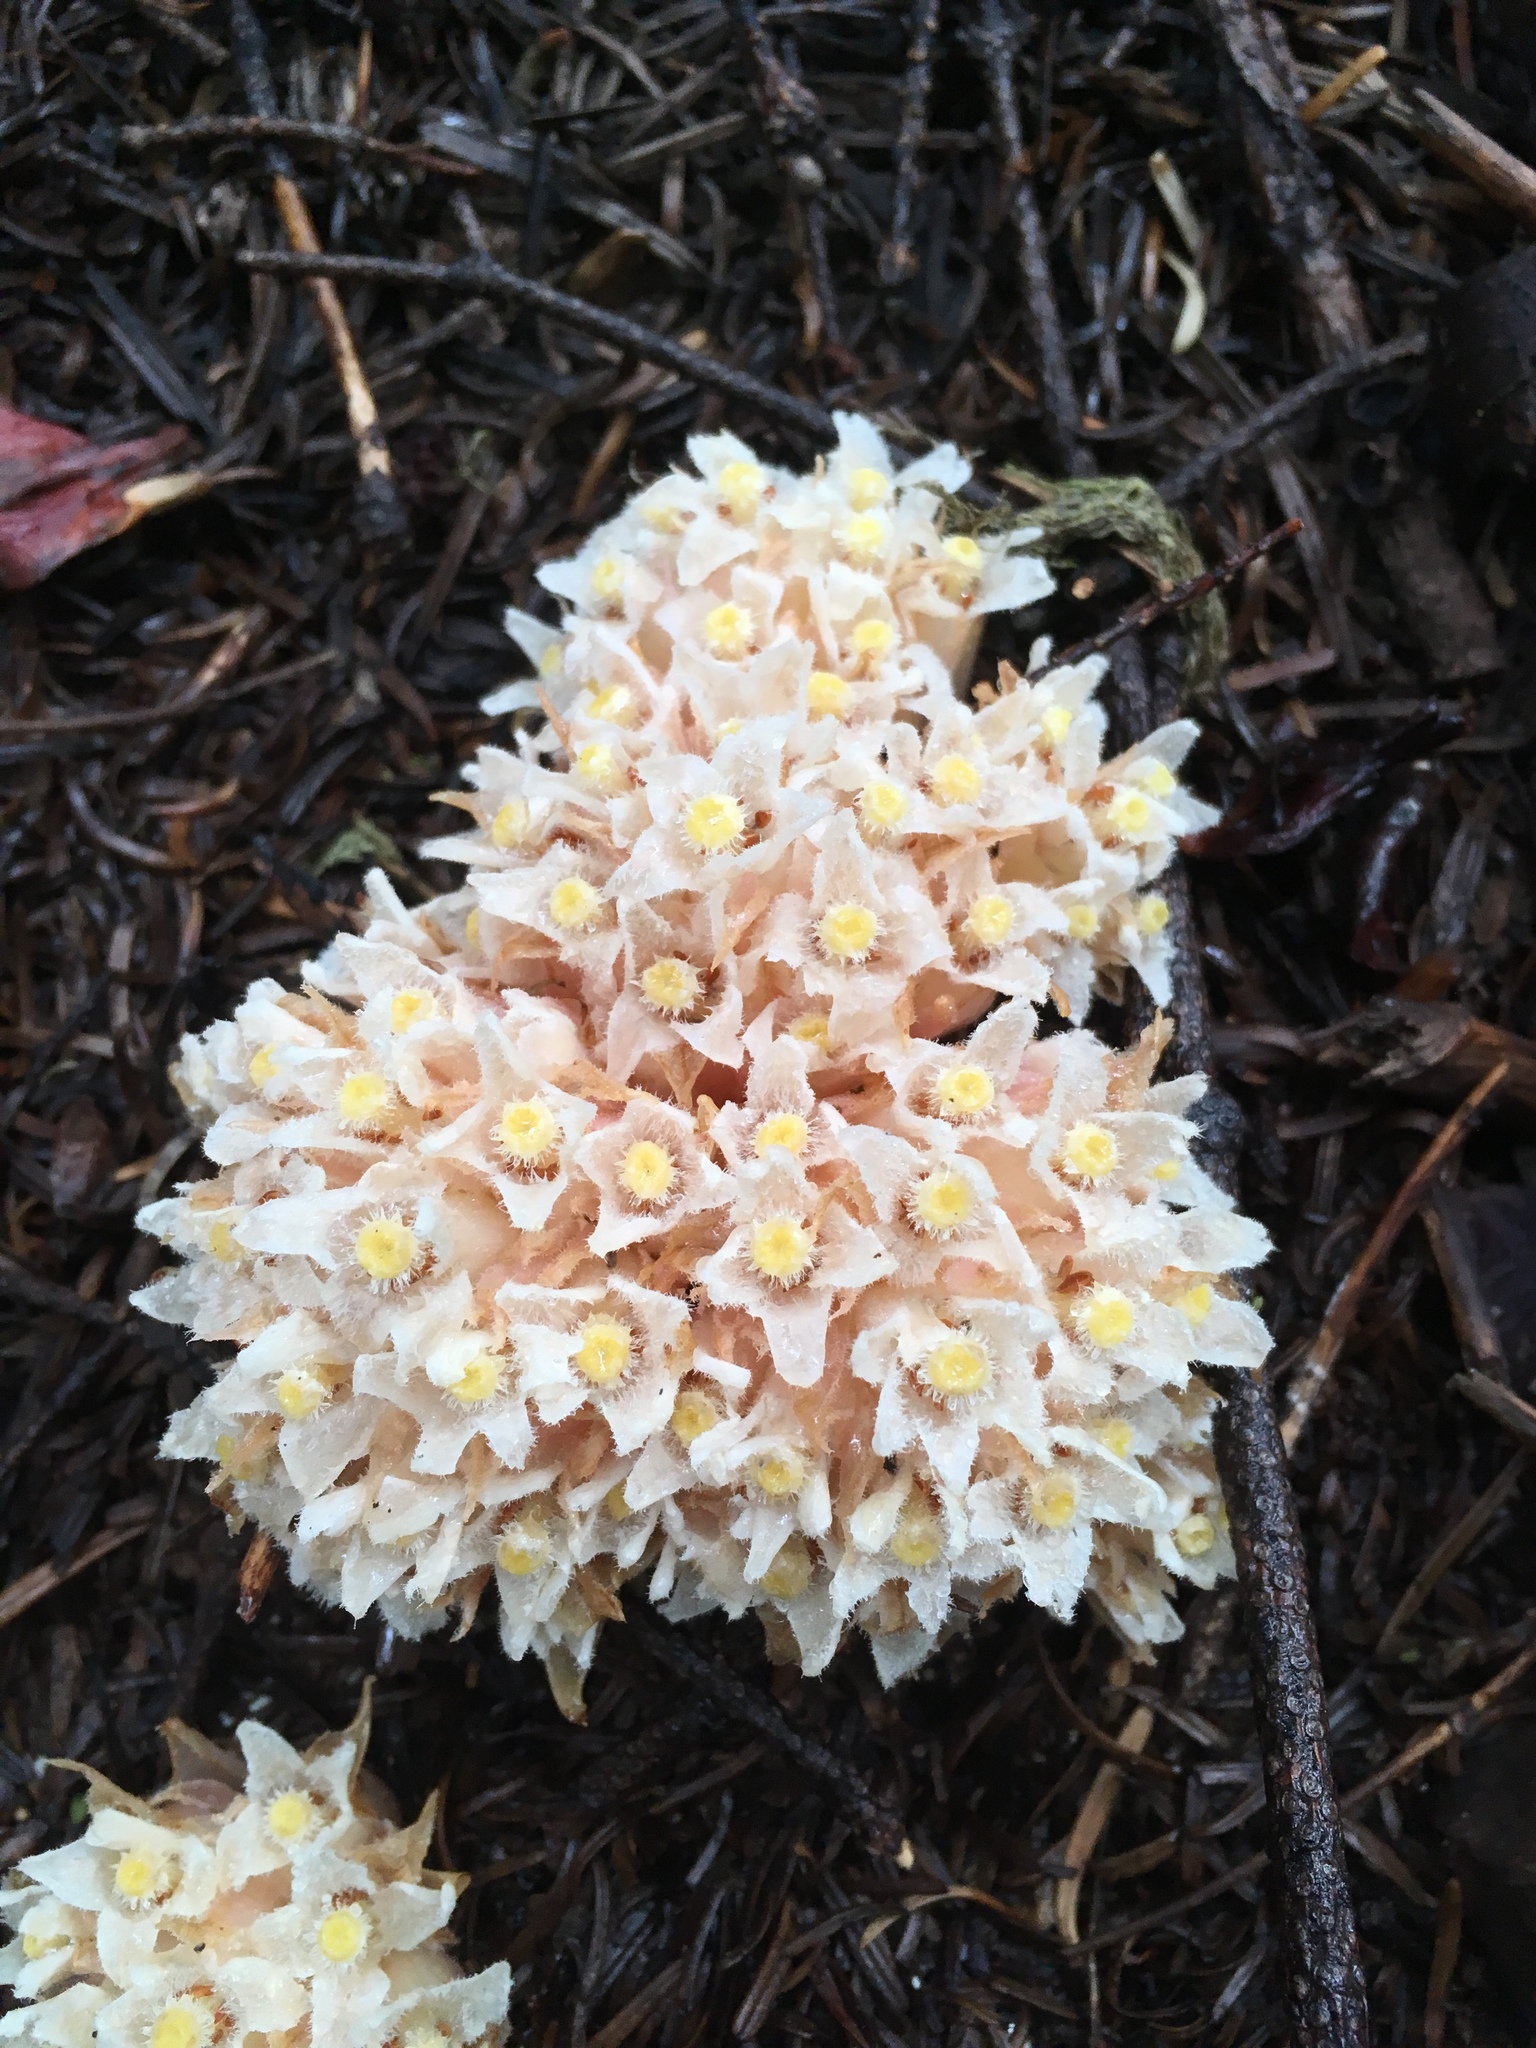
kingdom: Plantae
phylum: Tracheophyta
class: Magnoliopsida
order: Ericales
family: Ericaceae
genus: Hemitomes
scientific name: Hemitomes congestum
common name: Cone plant
